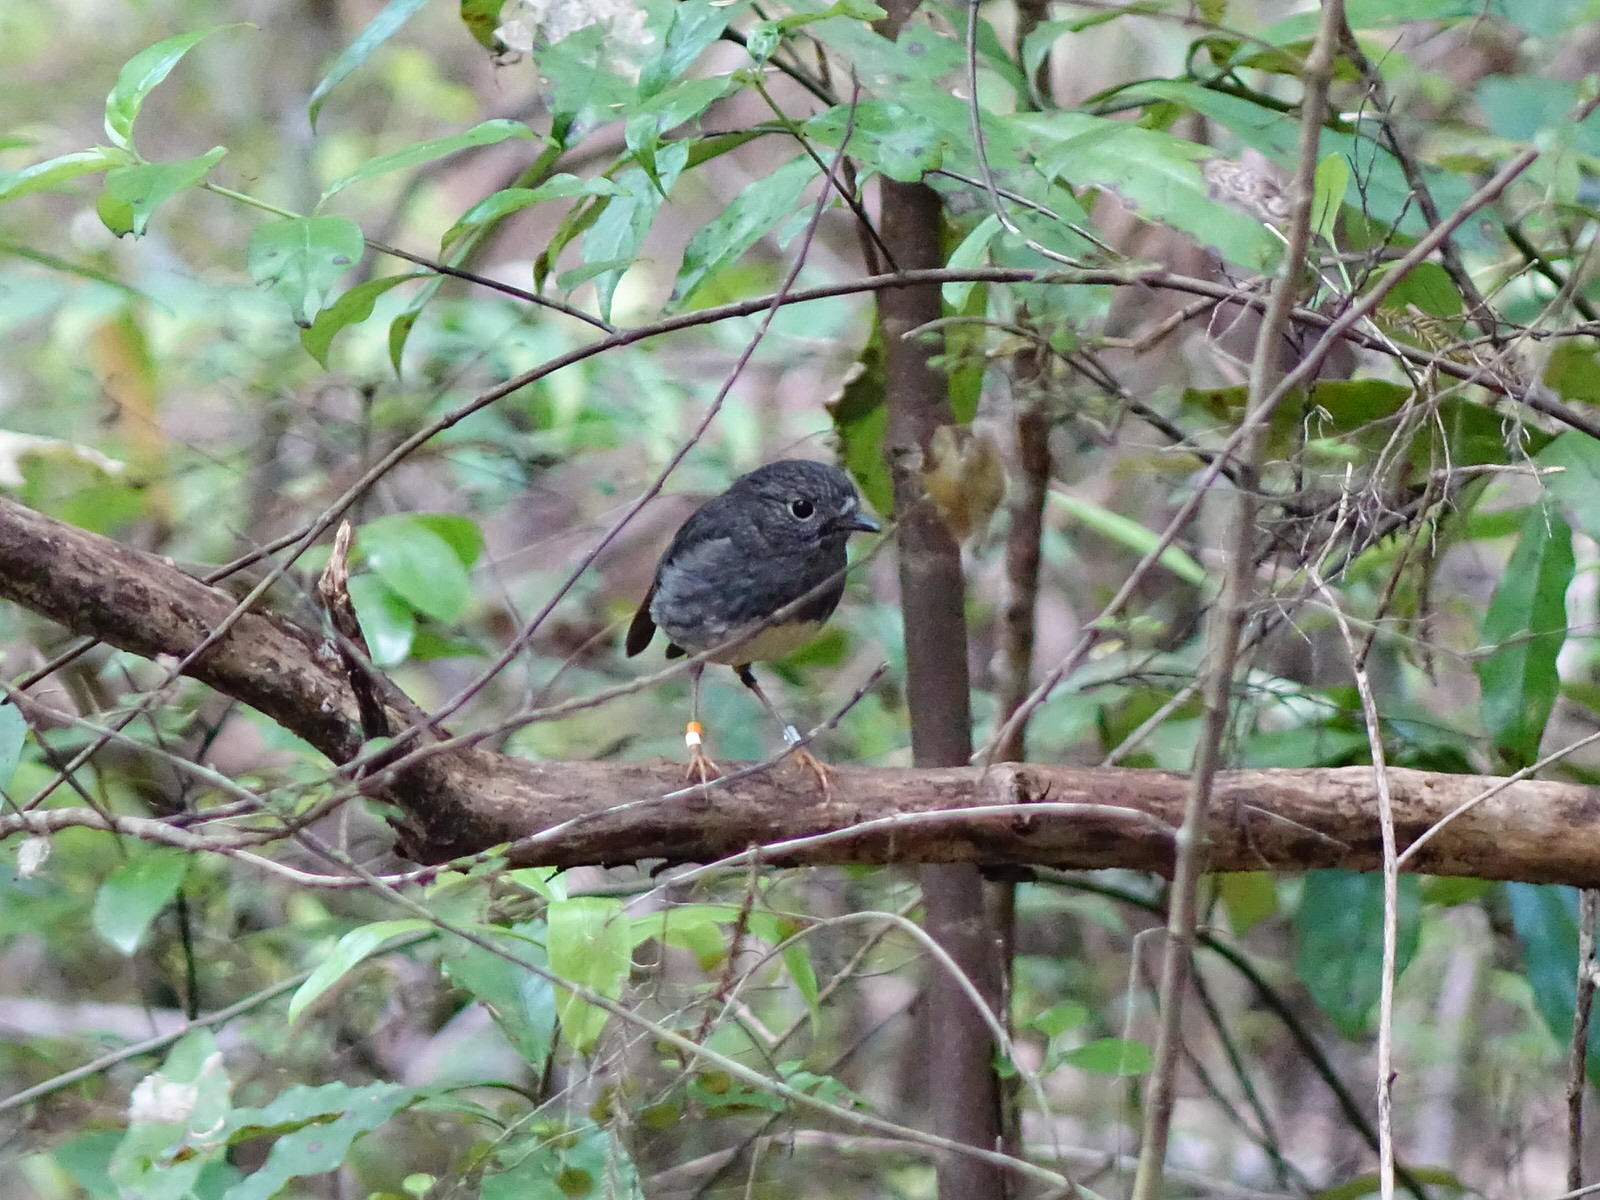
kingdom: Animalia
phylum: Chordata
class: Aves
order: Passeriformes
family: Petroicidae
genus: Petroica
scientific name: Petroica australis
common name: New zealand robin
